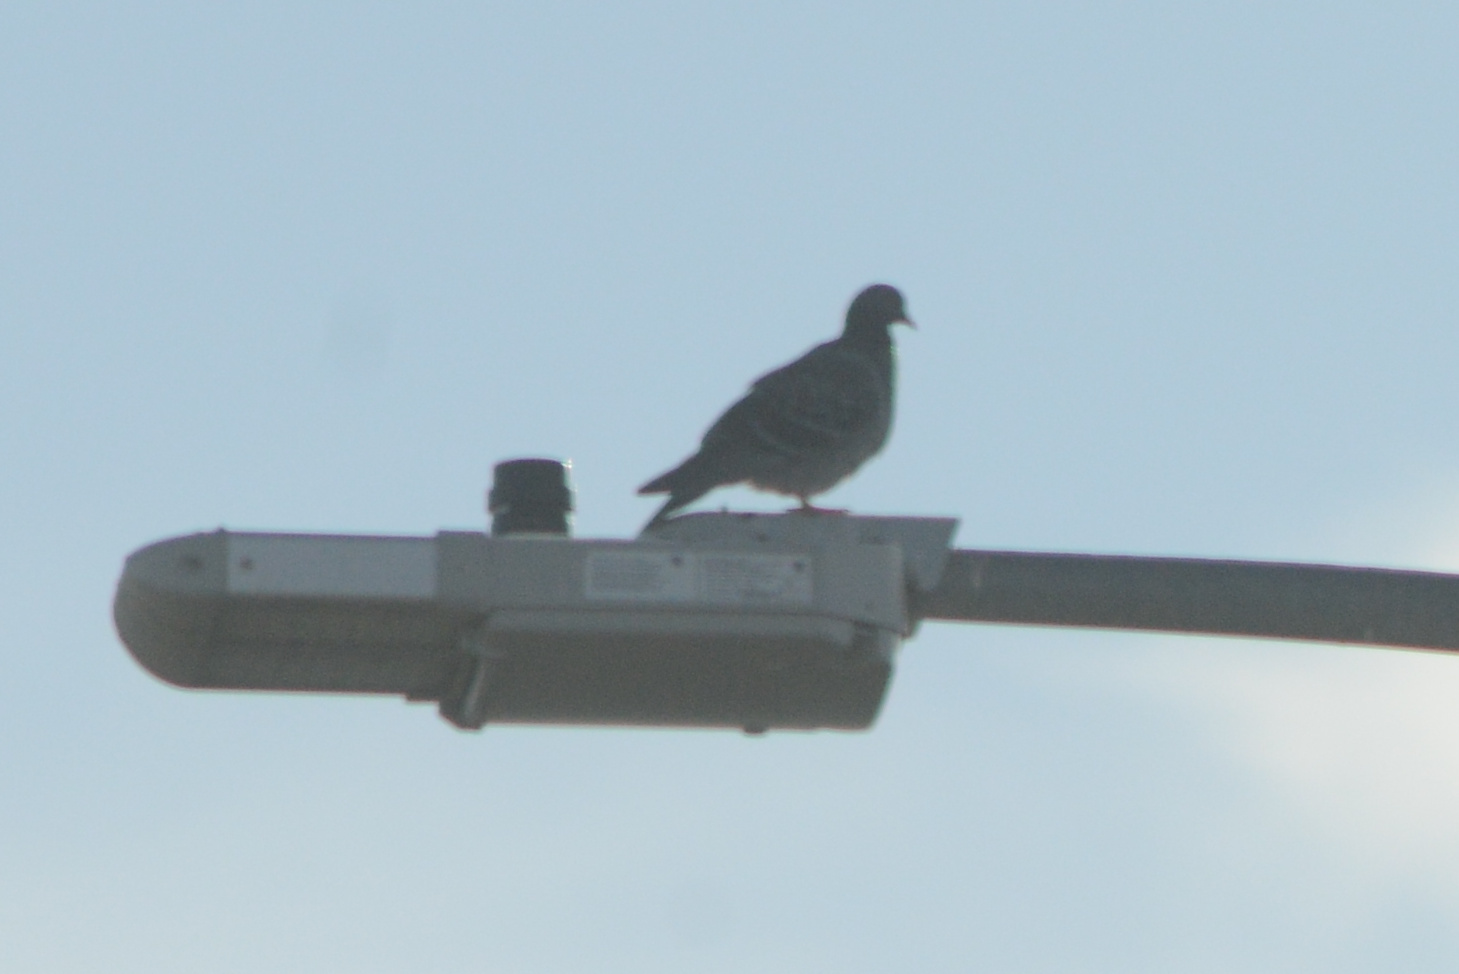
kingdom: Animalia
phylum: Chordata
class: Aves
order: Columbiformes
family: Columbidae
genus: Columba
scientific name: Columba livia
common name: Rock pigeon
